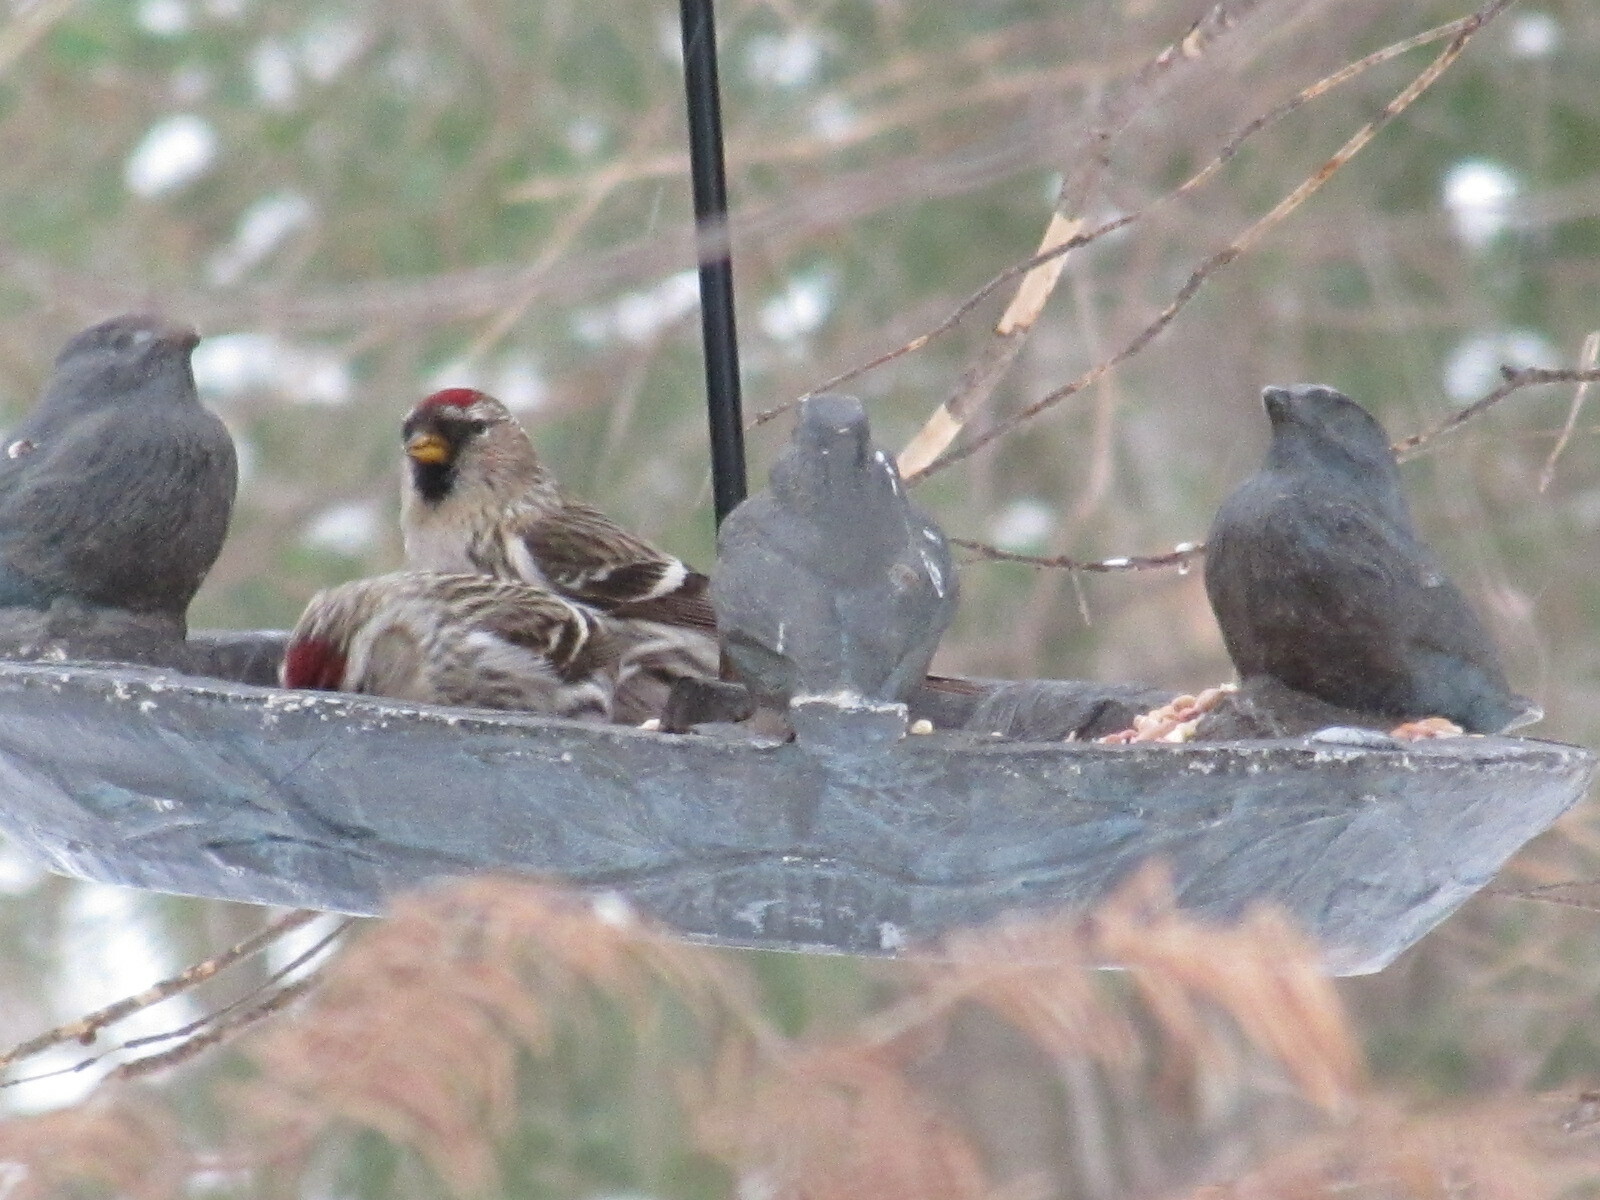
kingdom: Animalia
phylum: Chordata
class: Aves
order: Passeriformes
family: Fringillidae
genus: Acanthis
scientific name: Acanthis flammea
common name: Common redpoll
